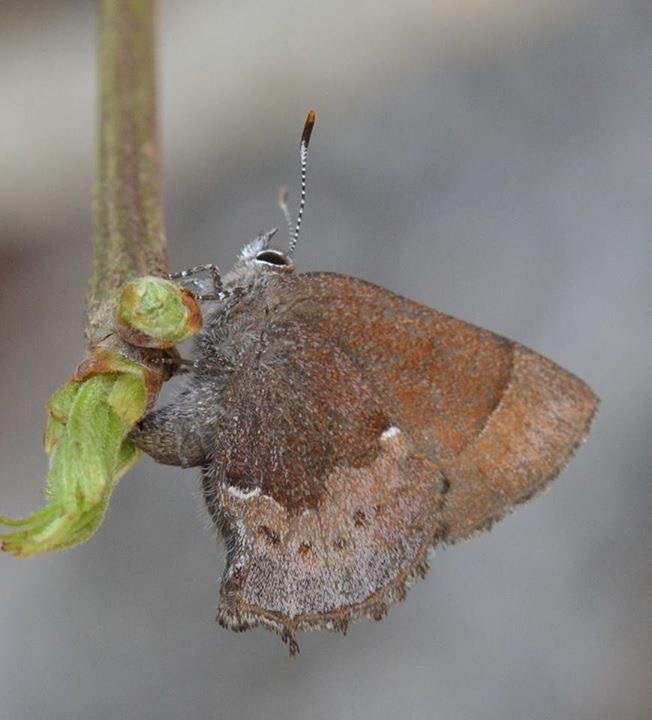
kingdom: Animalia
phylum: Arthropoda
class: Insecta
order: Lepidoptera
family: Lycaenidae
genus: Incisalia
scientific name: Incisalia henrici
